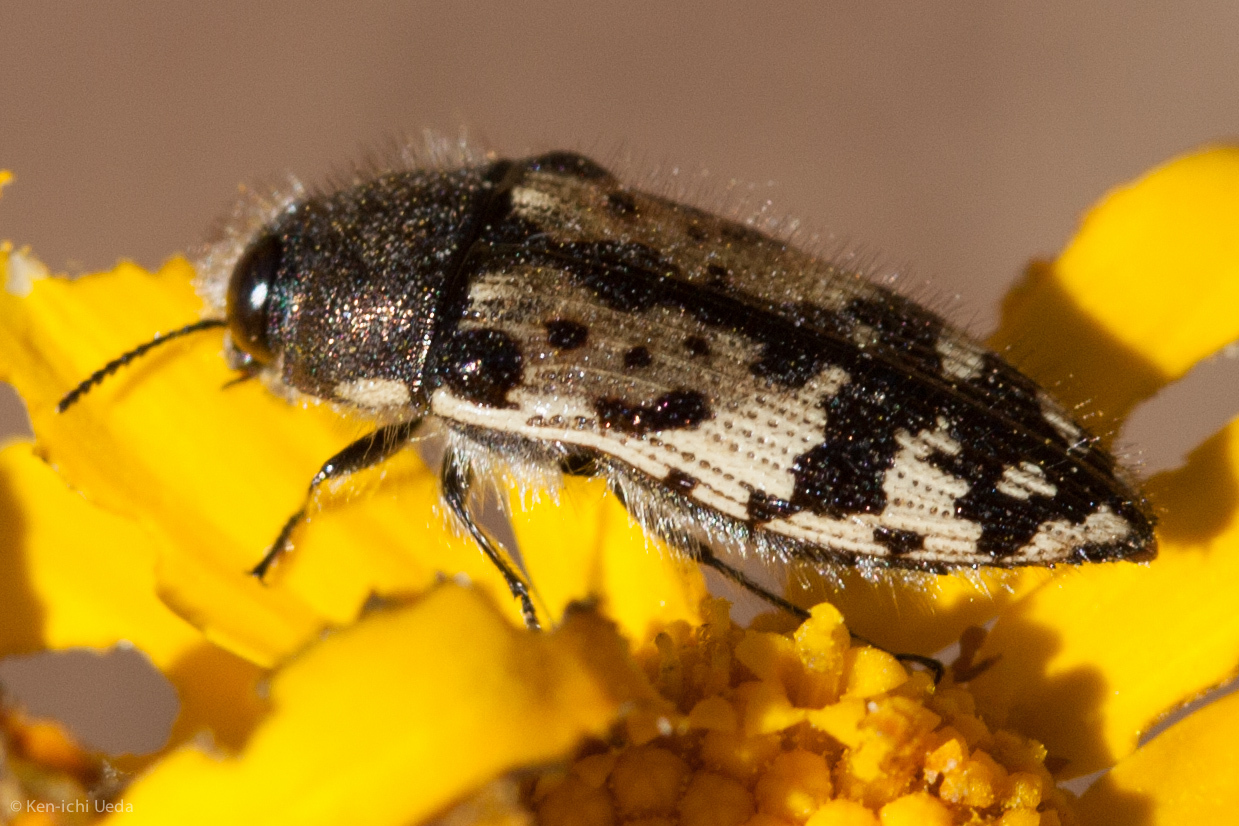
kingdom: Animalia
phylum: Arthropoda
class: Insecta
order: Coleoptera
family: Buprestidae
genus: Acmaeodera
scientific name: Acmaeodera hepburnii
